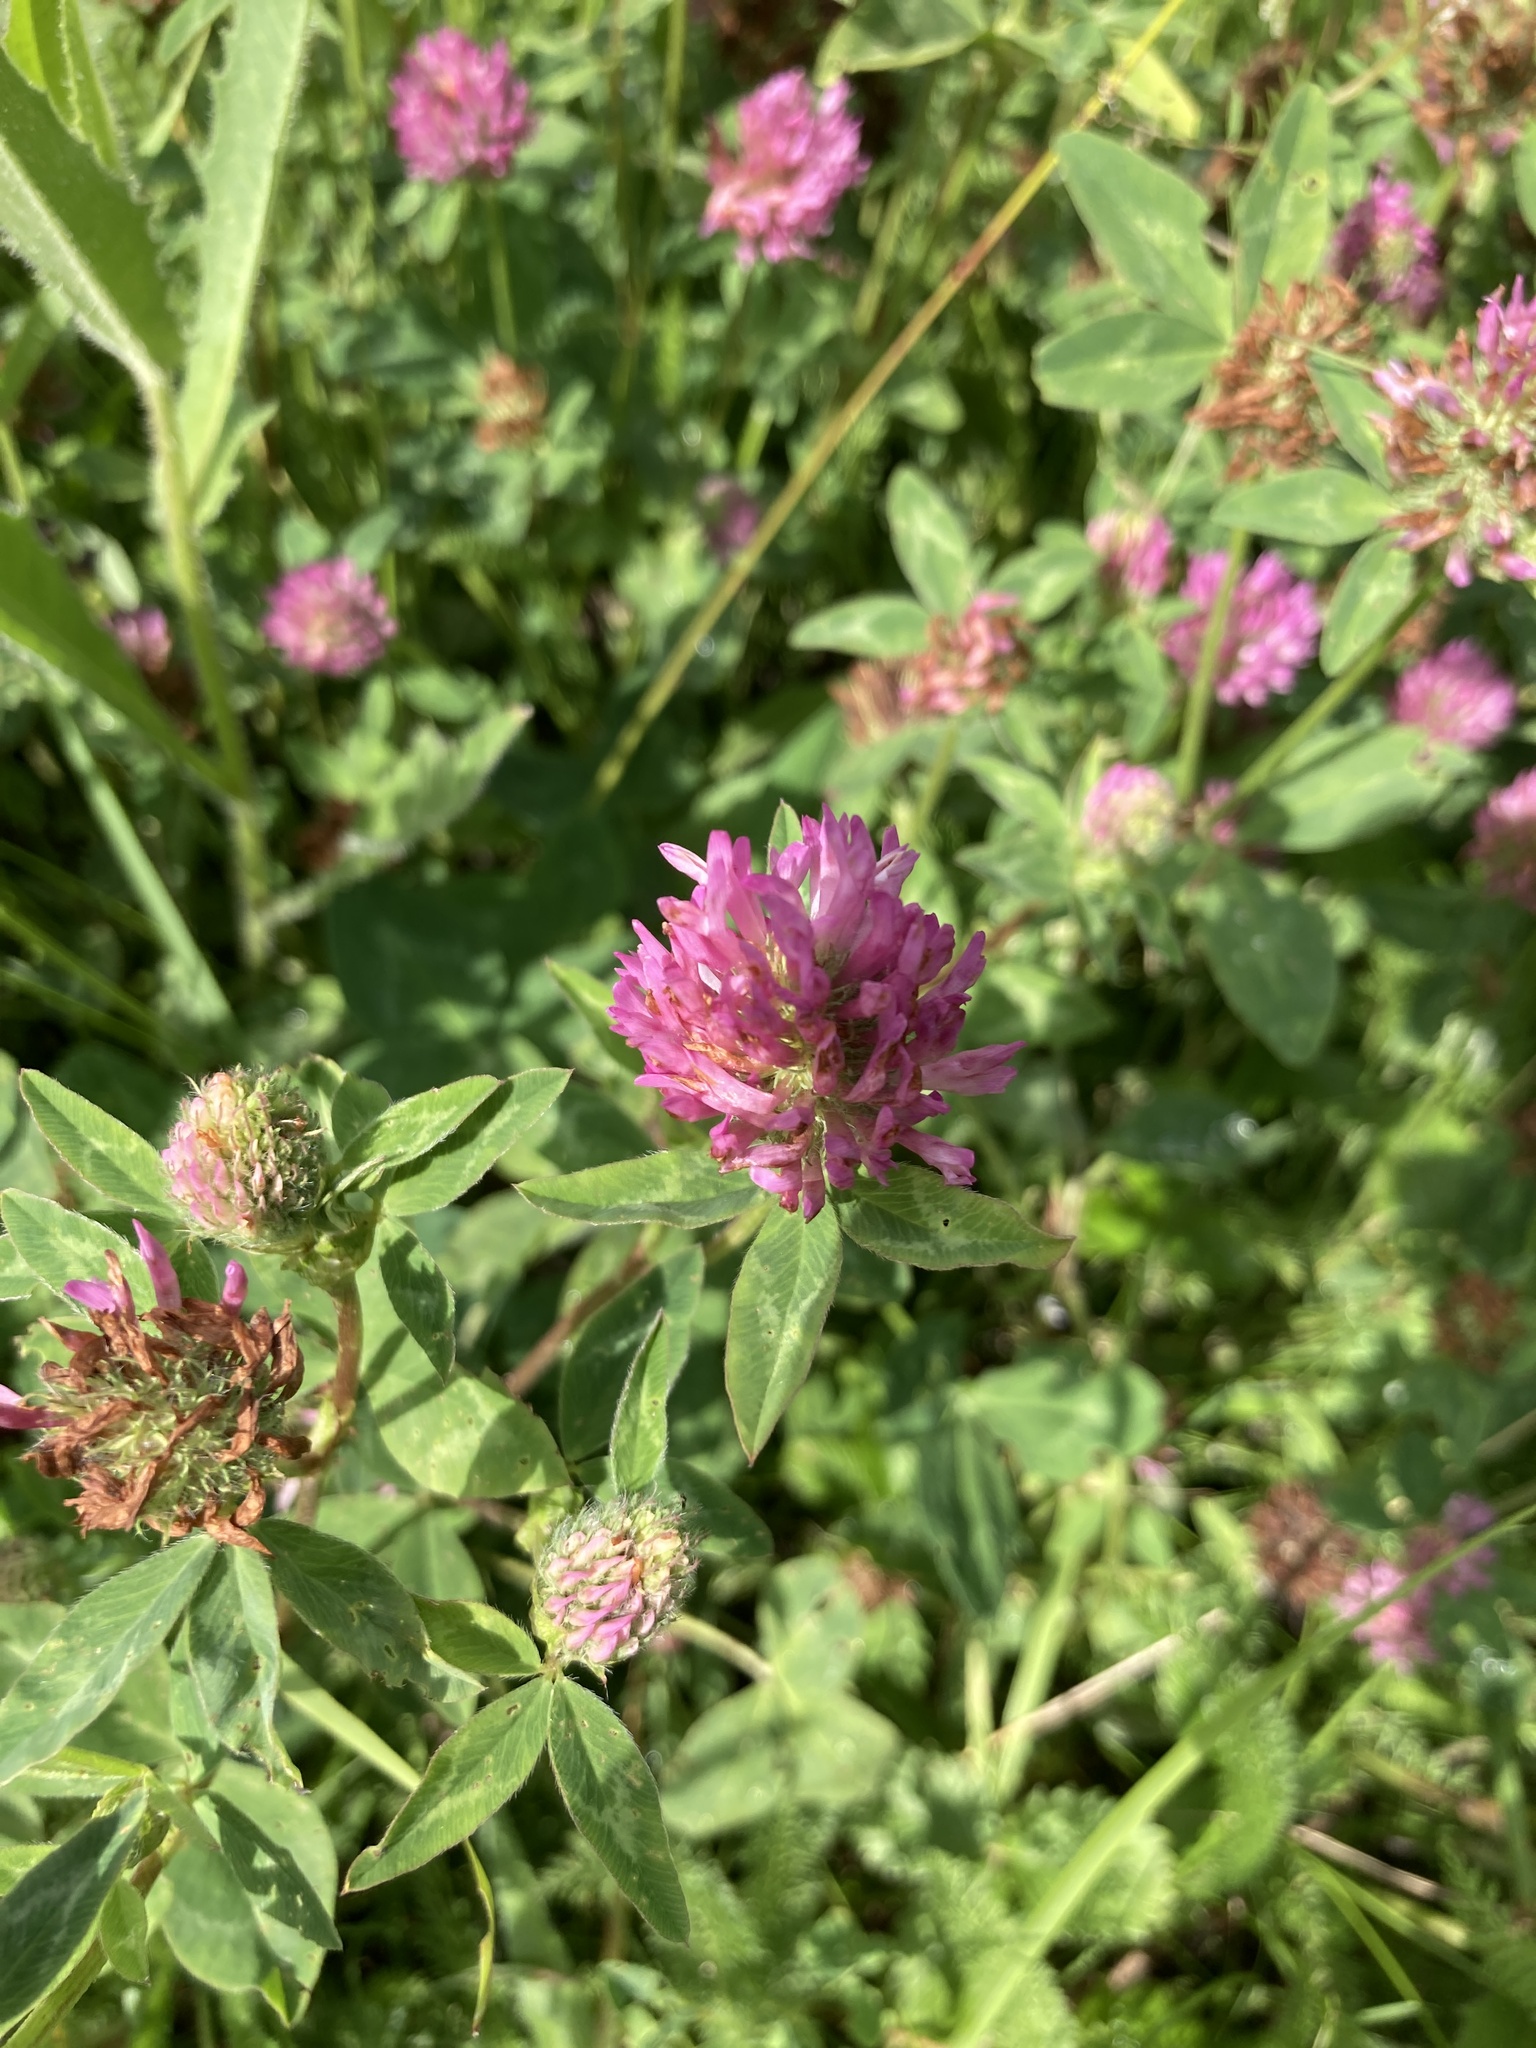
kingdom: Plantae
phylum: Tracheophyta
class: Magnoliopsida
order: Fabales
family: Fabaceae
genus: Trifolium
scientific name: Trifolium pratense
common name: Red clover
